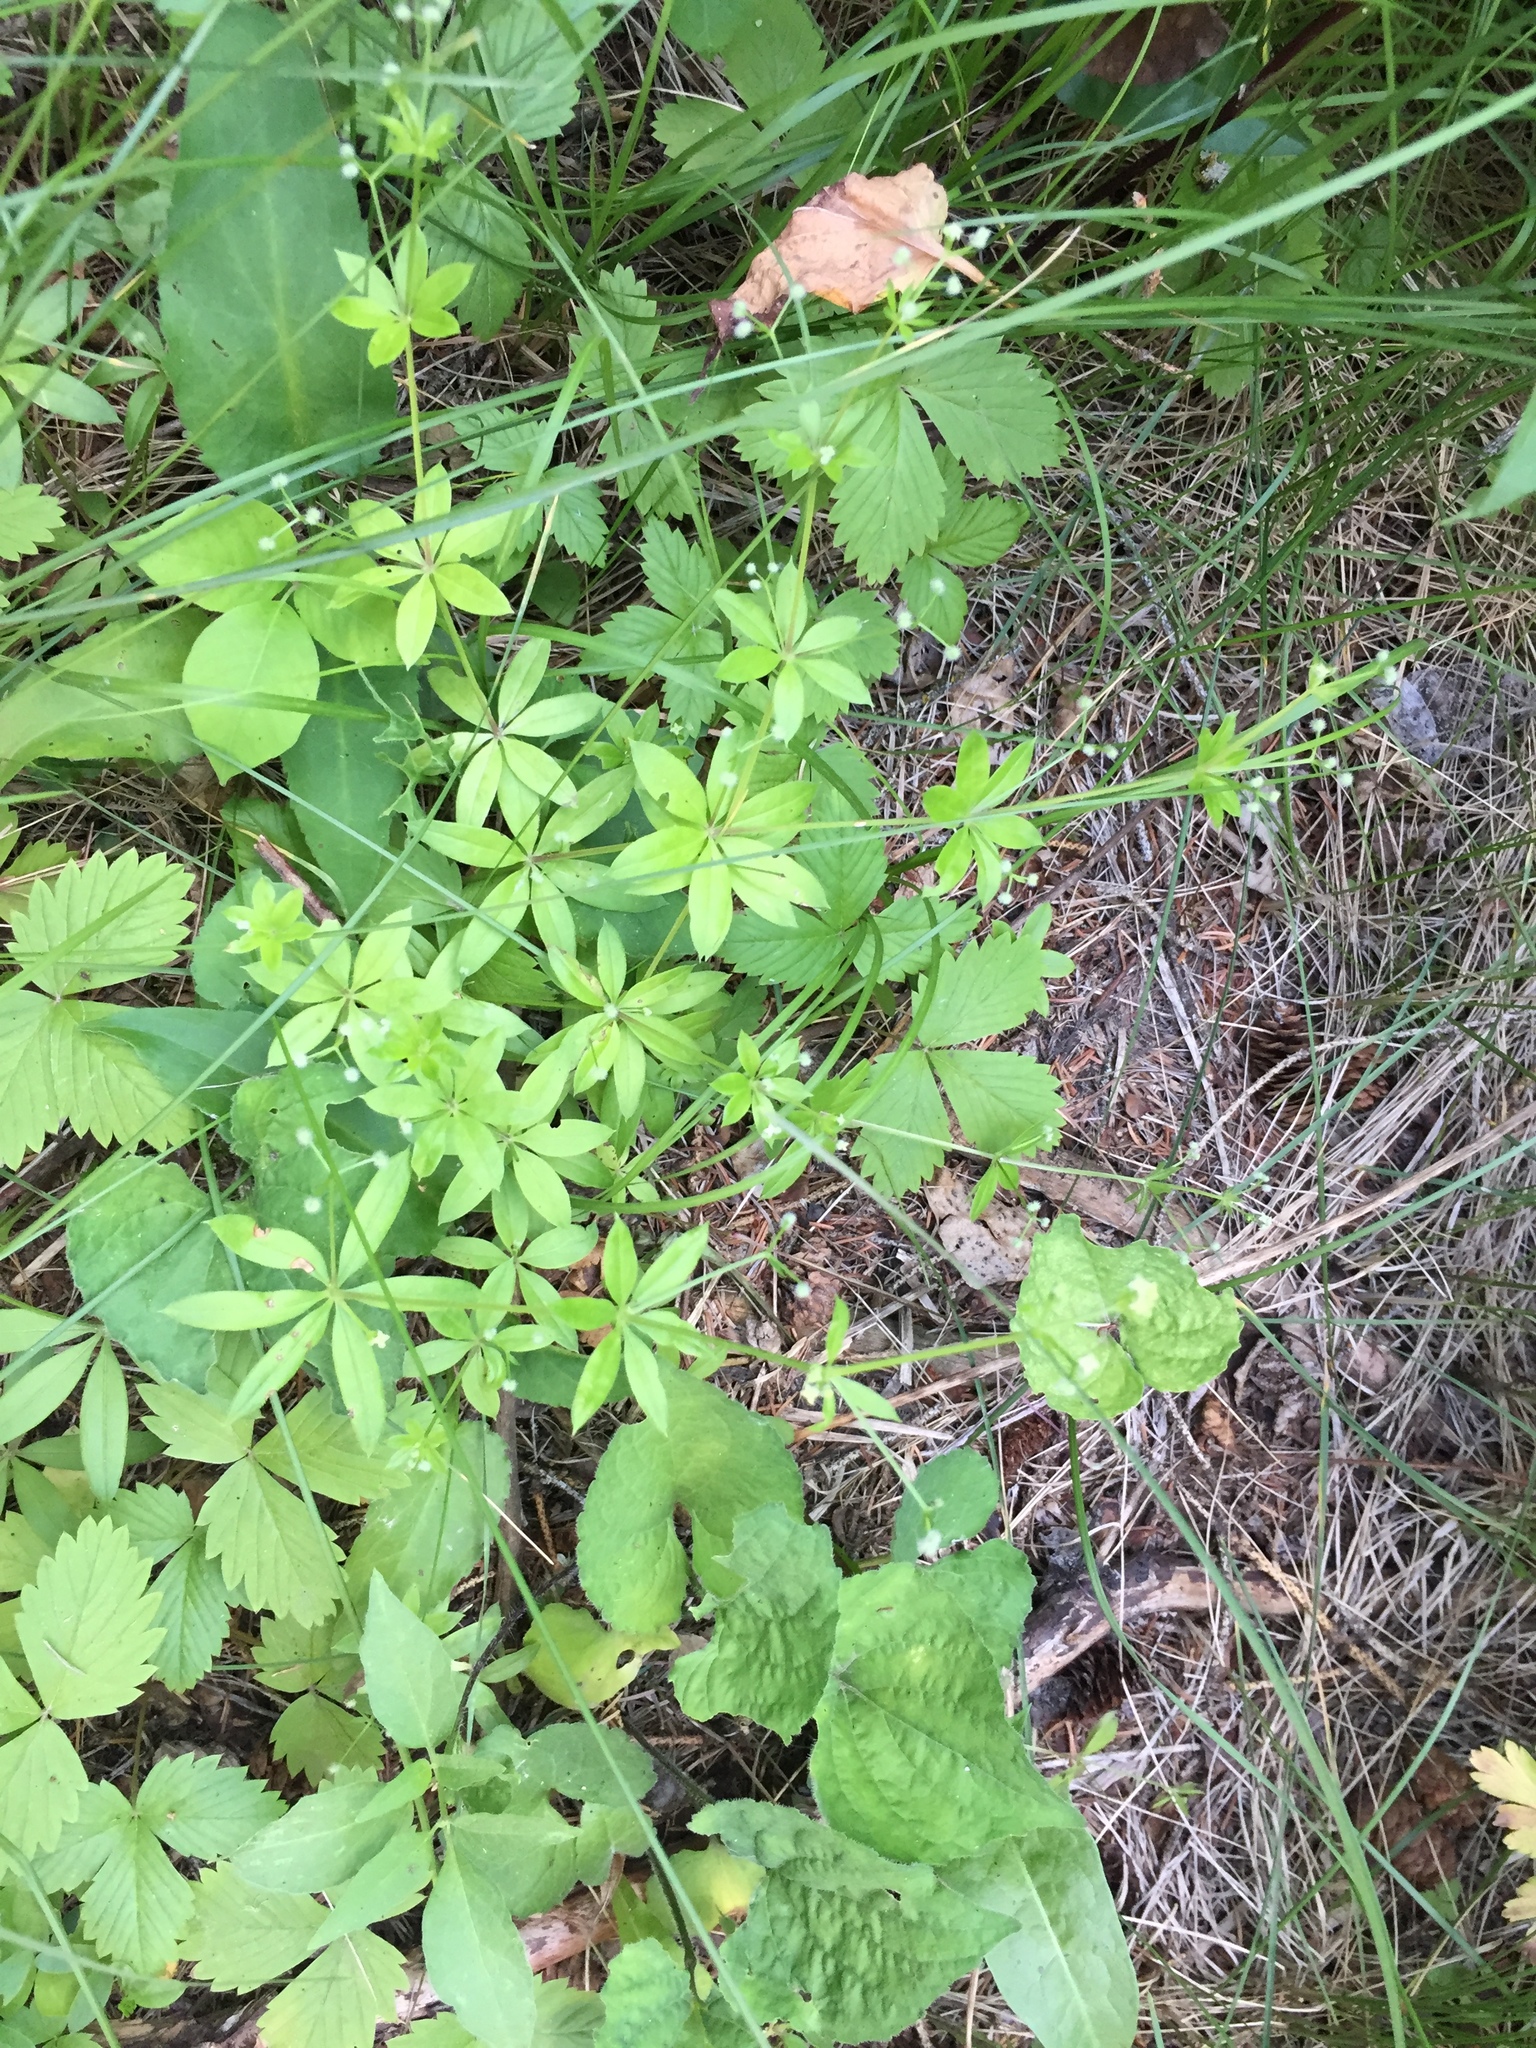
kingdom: Plantae
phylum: Tracheophyta
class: Magnoliopsida
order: Gentianales
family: Rubiaceae
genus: Galium
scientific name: Galium triflorum
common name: Fragrant bedstraw
